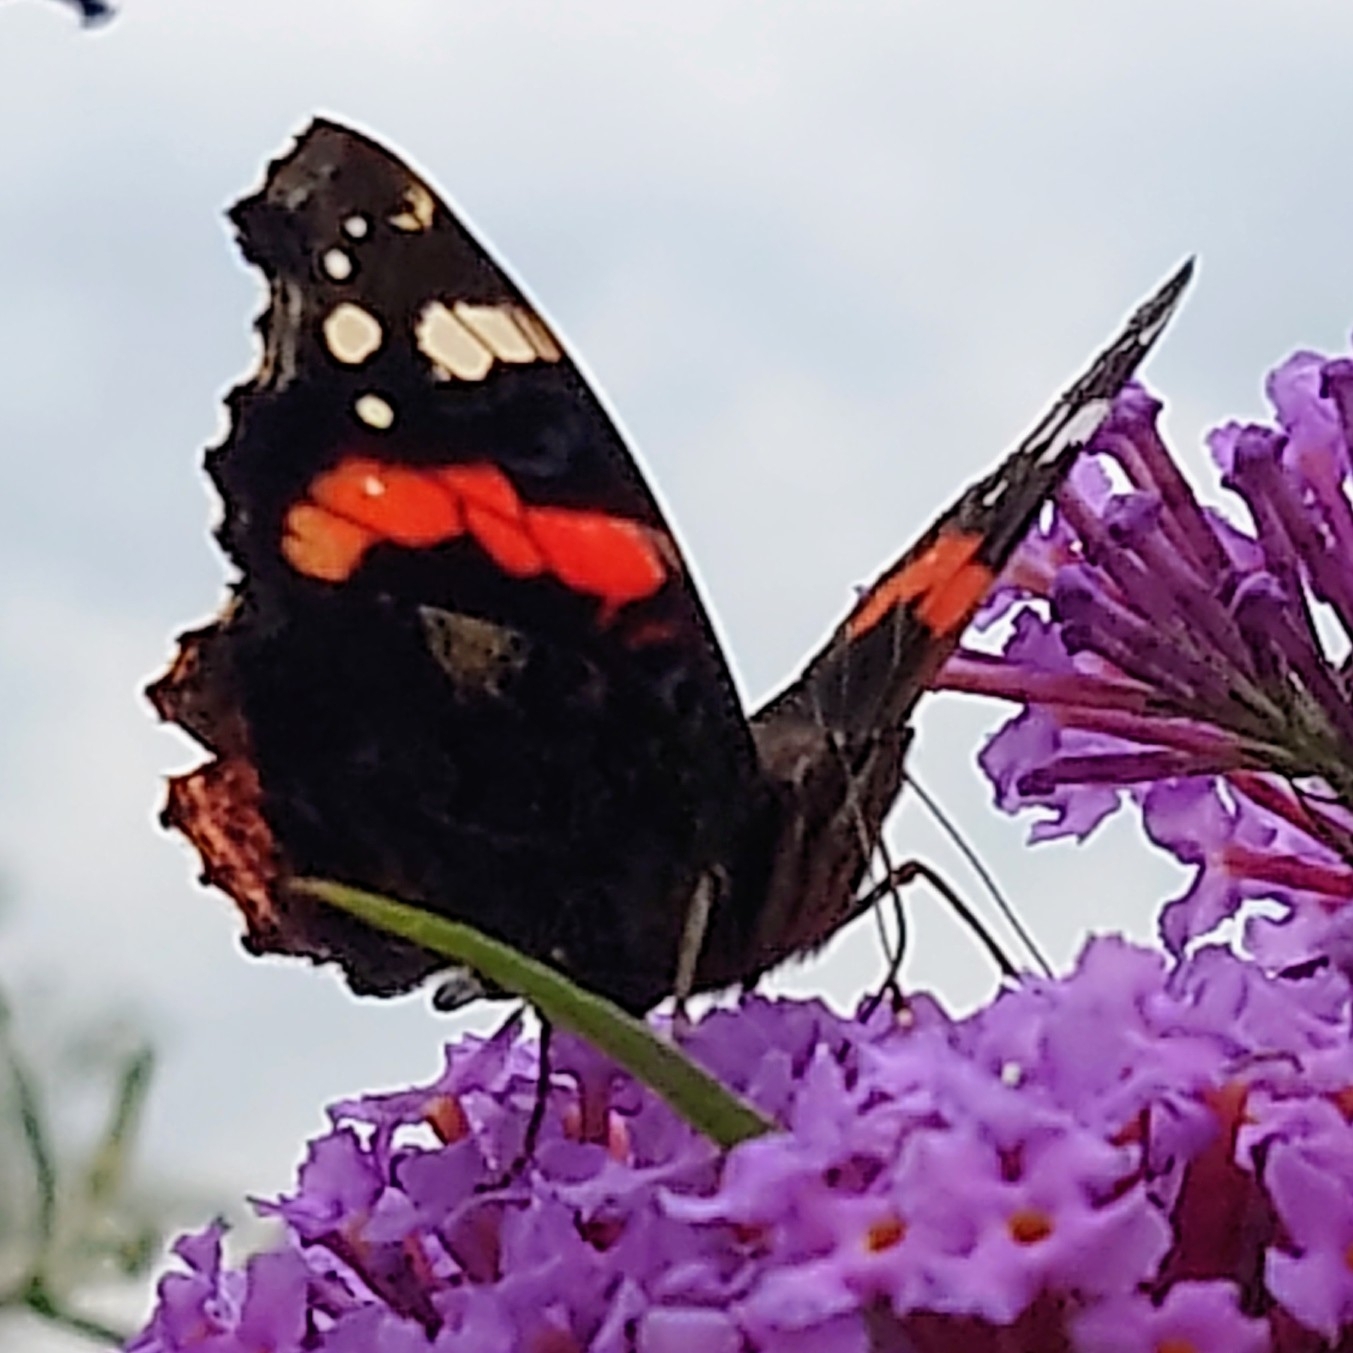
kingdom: Animalia
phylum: Arthropoda
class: Insecta
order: Lepidoptera
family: Nymphalidae
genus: Vanessa
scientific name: Vanessa atalanta
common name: Red admiral
